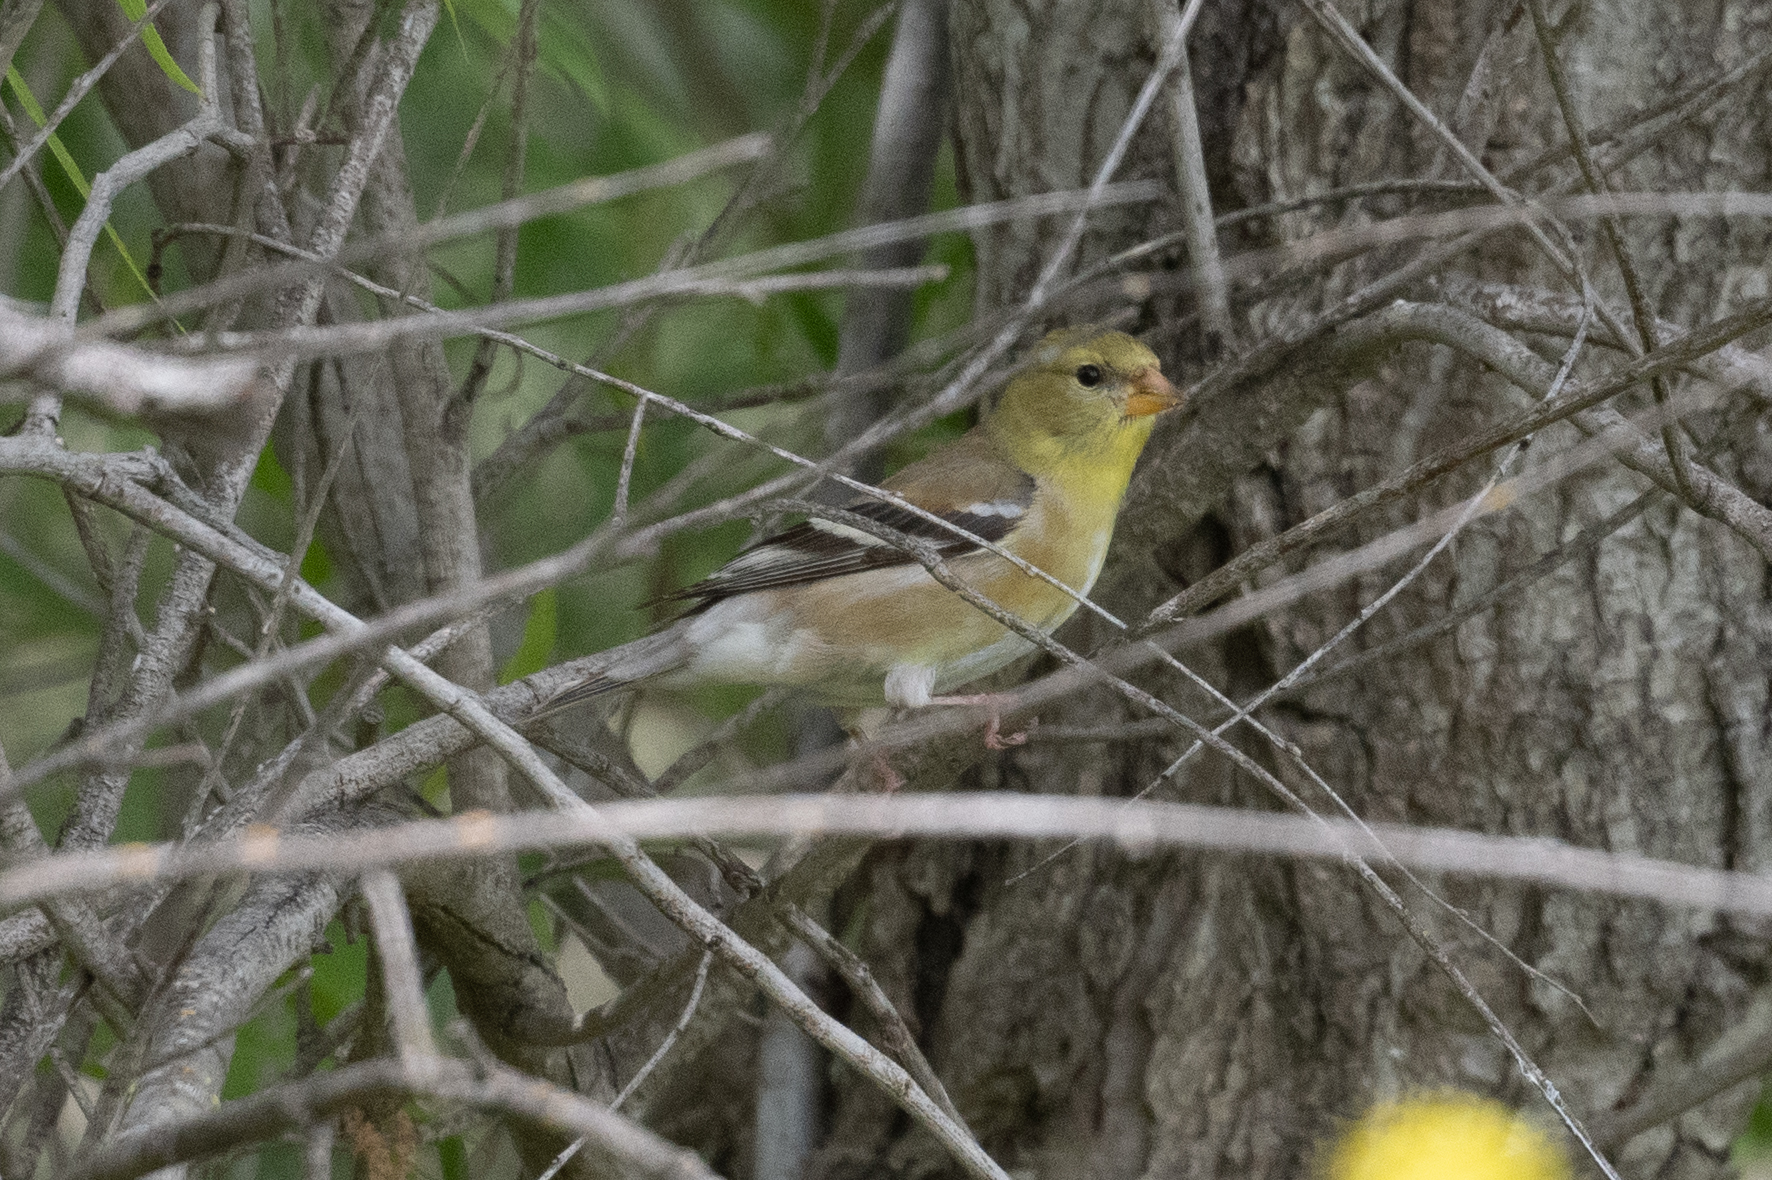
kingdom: Animalia
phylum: Chordata
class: Aves
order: Passeriformes
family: Fringillidae
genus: Spinus
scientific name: Spinus tristis
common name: American goldfinch
